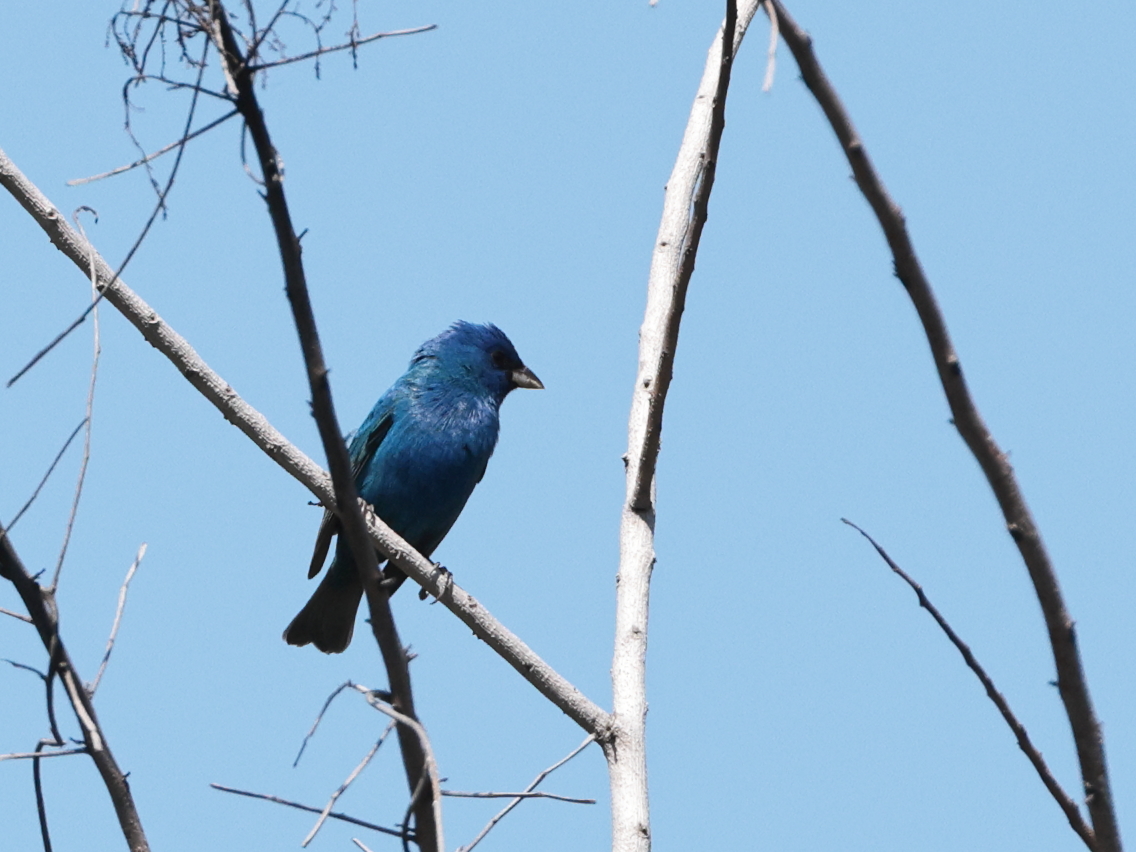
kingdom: Animalia
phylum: Chordata
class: Aves
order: Passeriformes
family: Cardinalidae
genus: Passerina
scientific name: Passerina cyanea
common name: Indigo bunting
